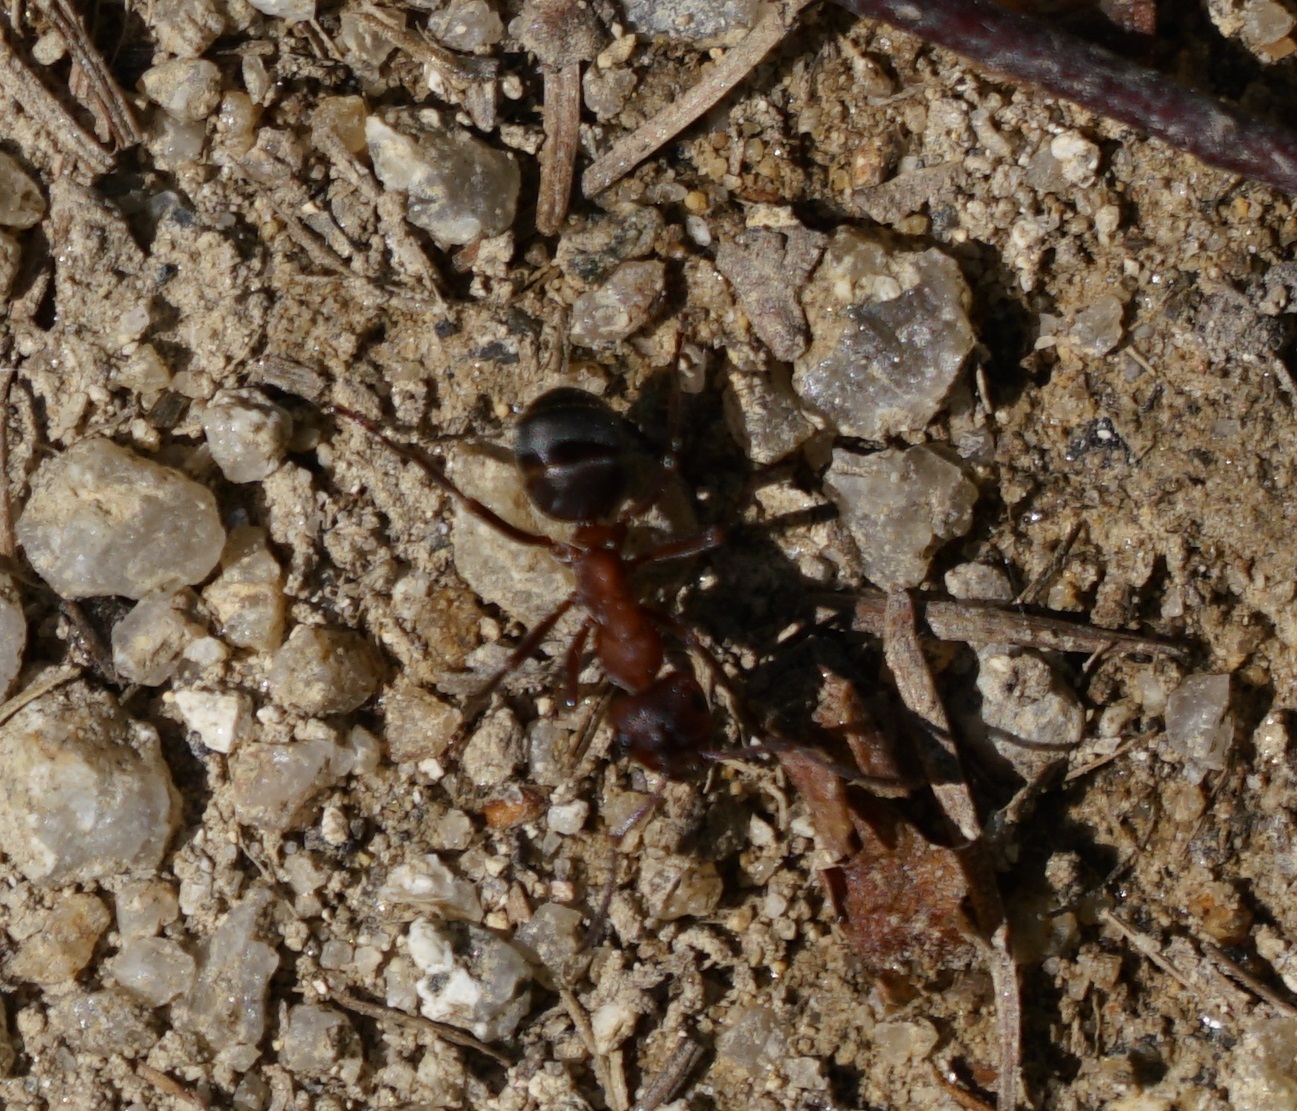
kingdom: Animalia
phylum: Arthropoda
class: Insecta
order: Hymenoptera
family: Formicidae
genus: Formica
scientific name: Formica sanguinea
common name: Blood-red ant
